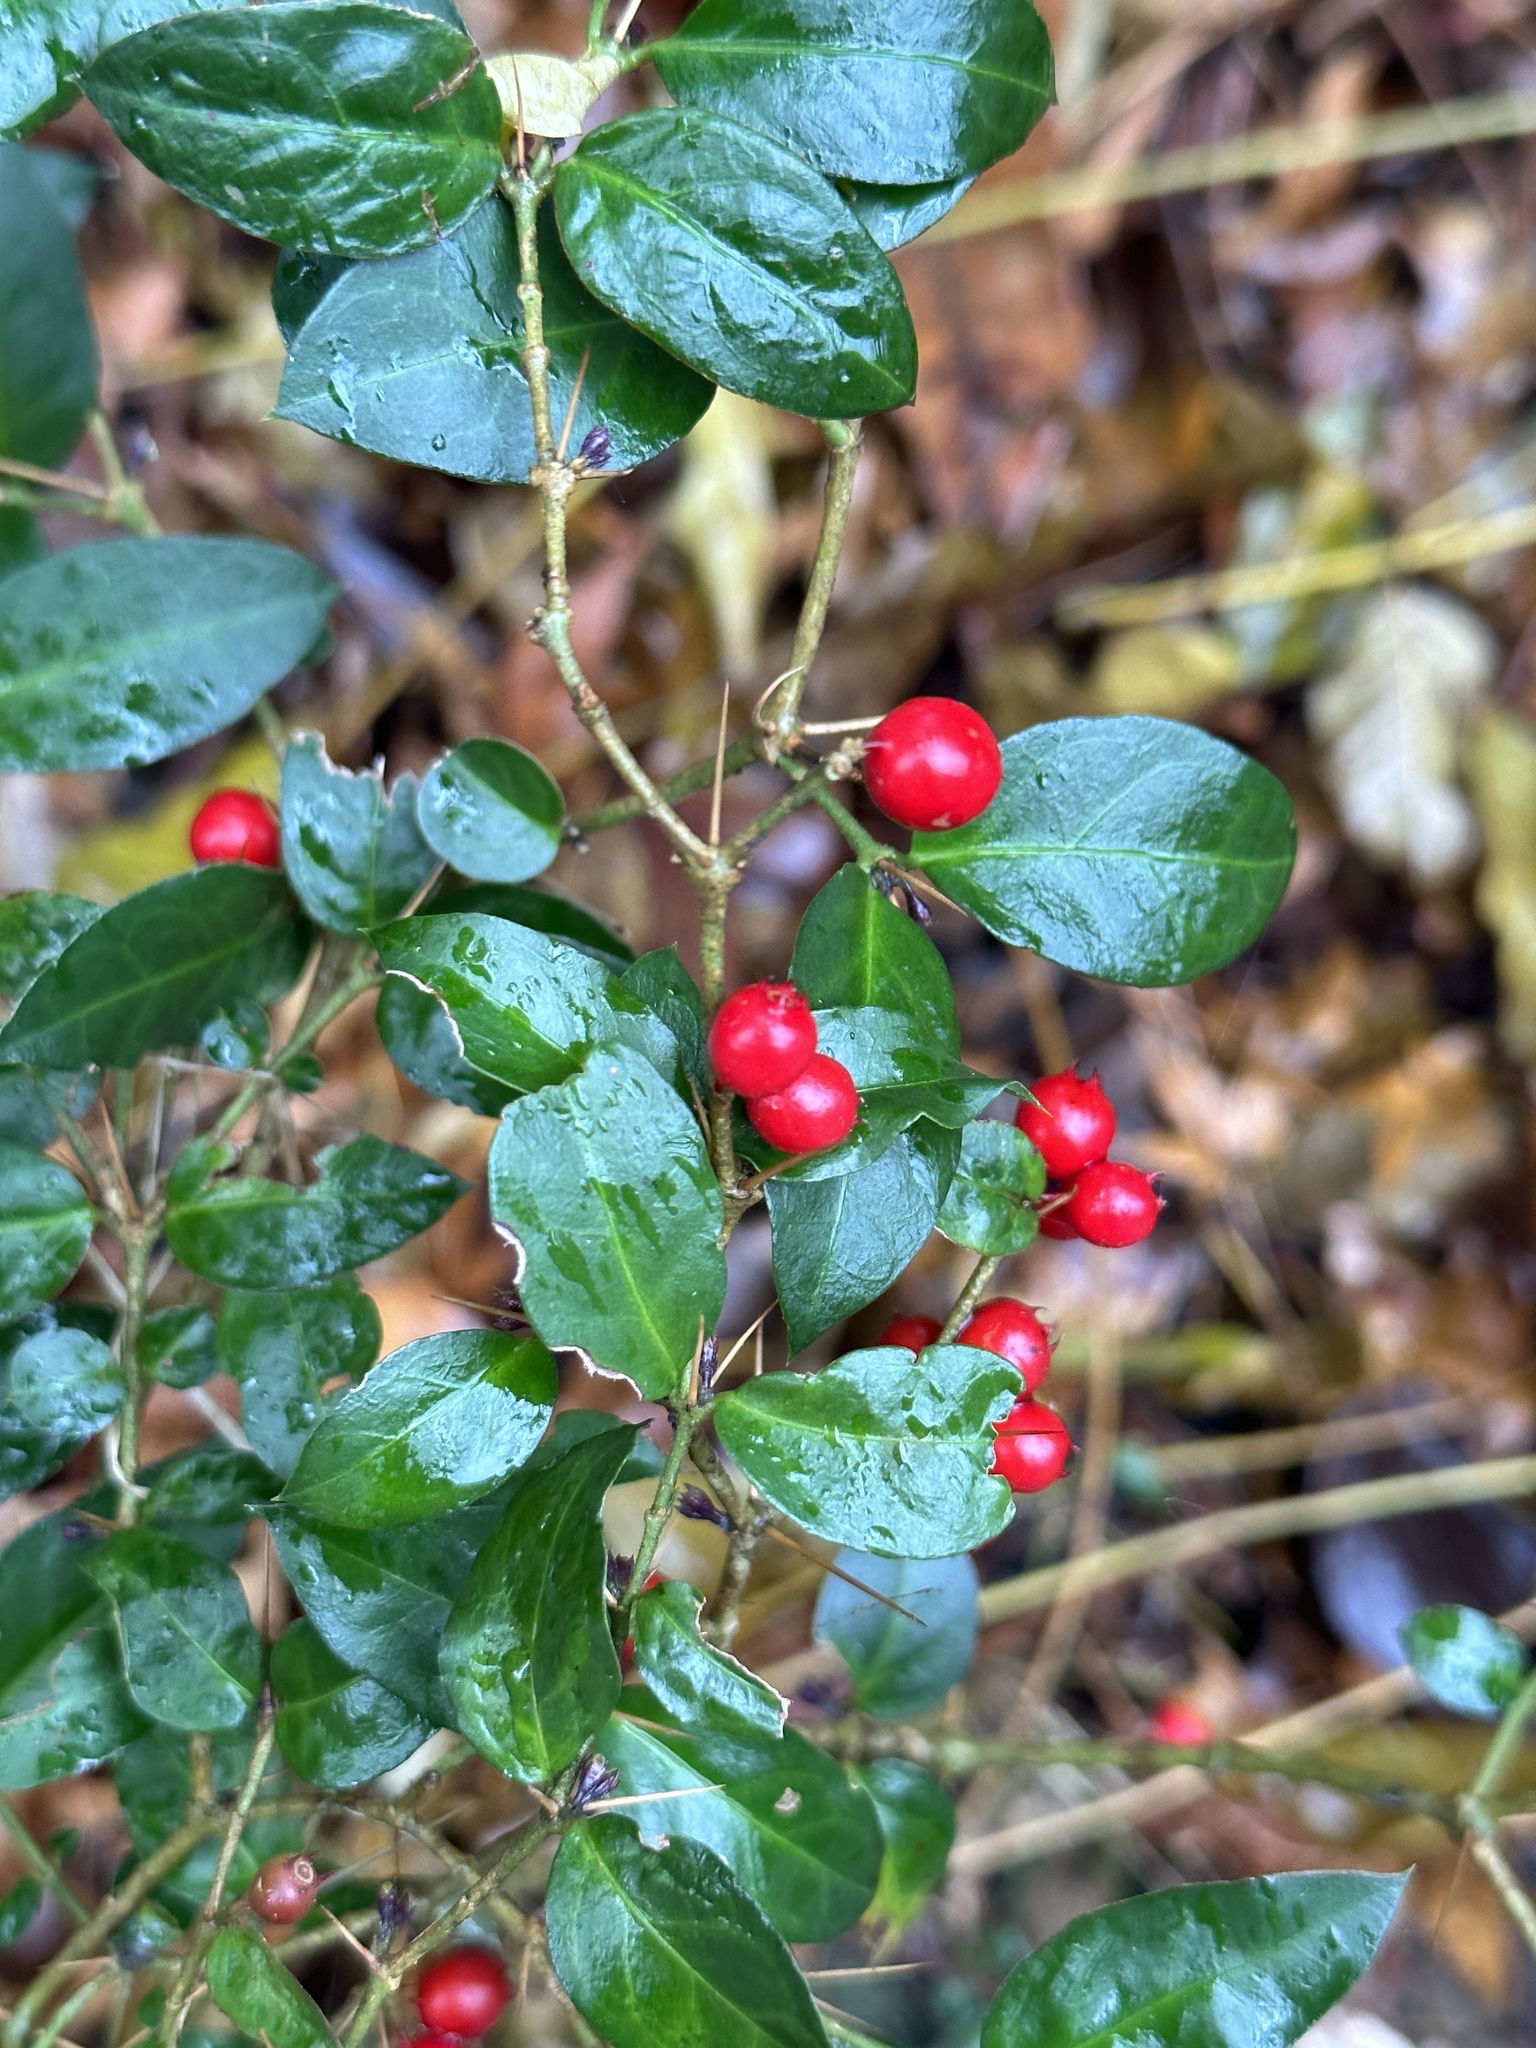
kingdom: Plantae
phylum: Tracheophyta
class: Magnoliopsida
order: Gentianales
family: Rubiaceae
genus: Damnacanthus
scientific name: Damnacanthus indicus
